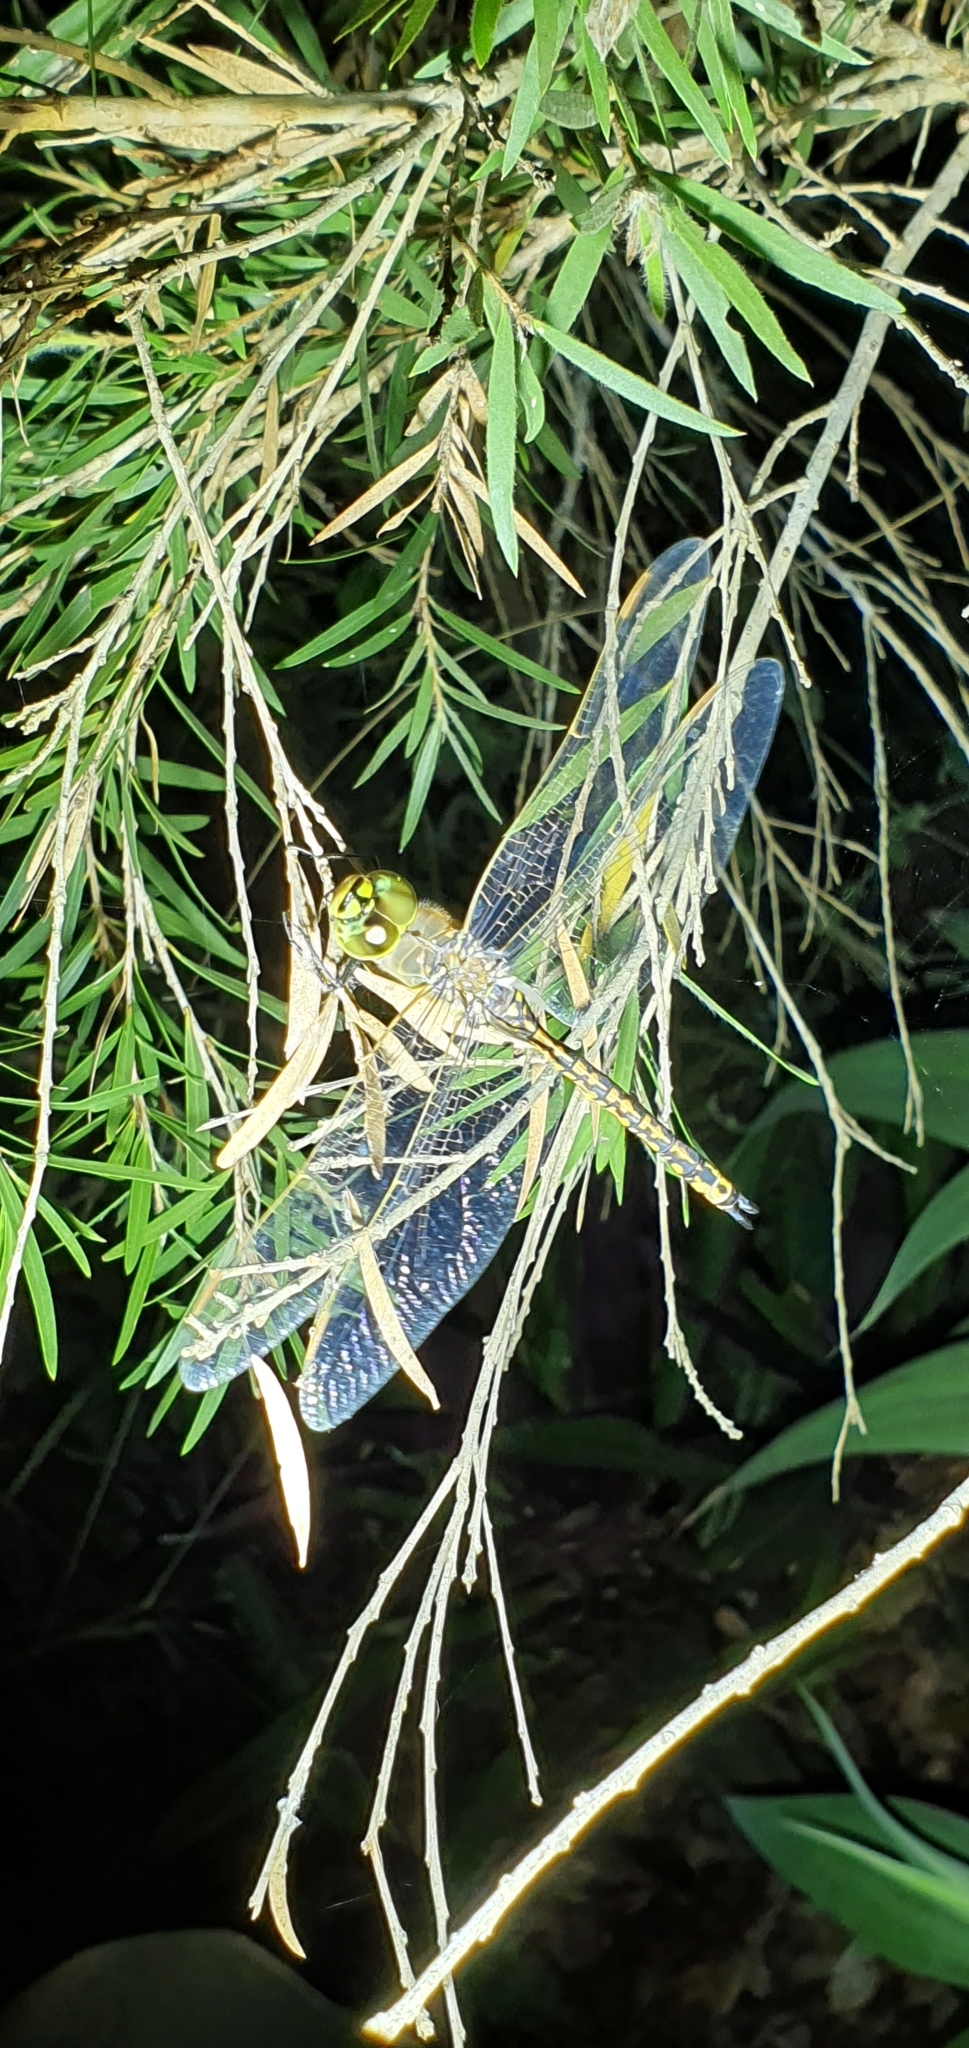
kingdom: Animalia
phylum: Arthropoda
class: Insecta
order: Odonata
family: Aeshnidae
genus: Anax
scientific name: Anax papuensis
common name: Australian emperor
